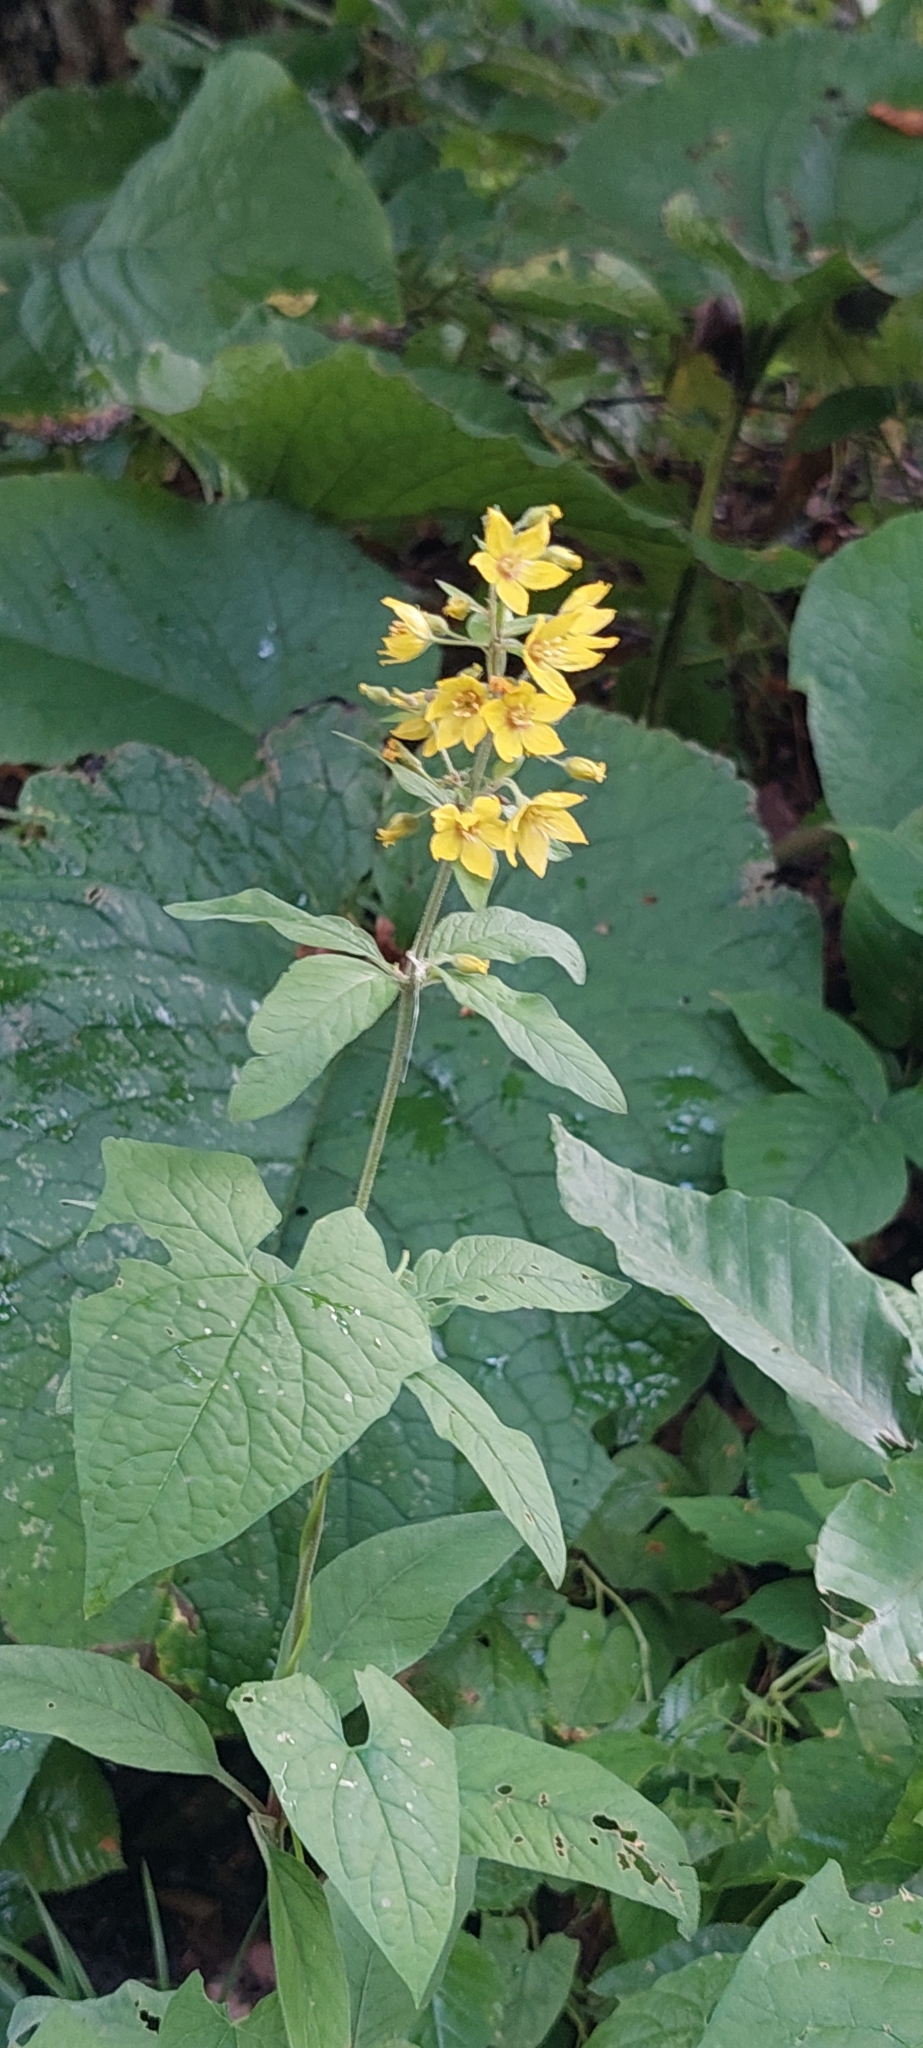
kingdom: Plantae
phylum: Tracheophyta
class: Magnoliopsida
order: Ericales
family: Primulaceae
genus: Lysimachia
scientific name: Lysimachia verticillaris
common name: Yellow loosestrife
